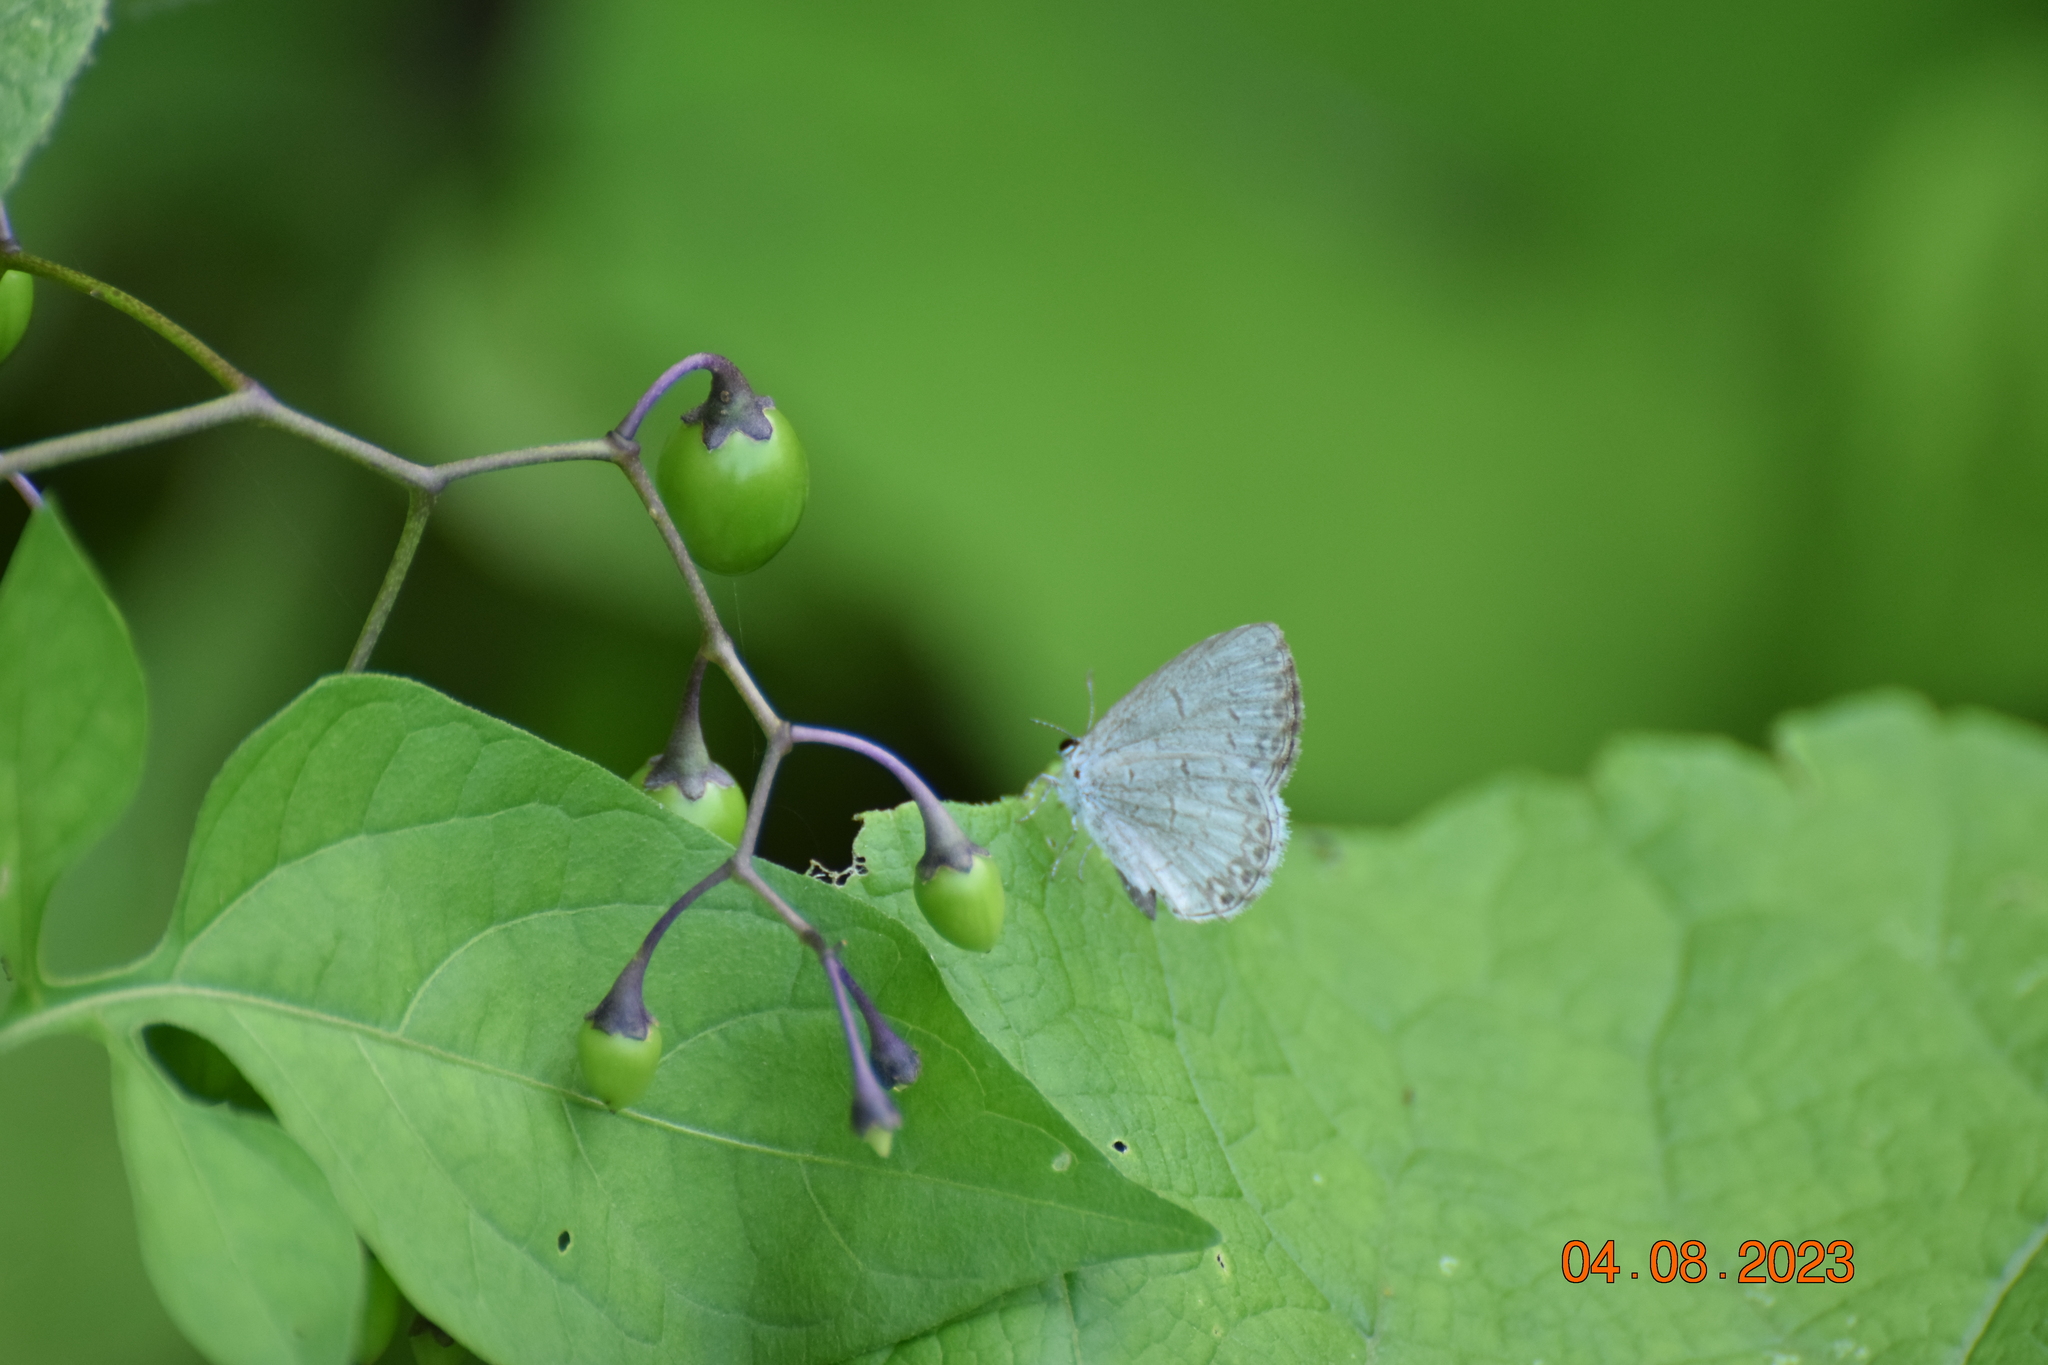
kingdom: Animalia
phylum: Arthropoda
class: Insecta
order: Lepidoptera
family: Lycaenidae
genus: Celastrina
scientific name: Celastrina lucia
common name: Lucia azure
